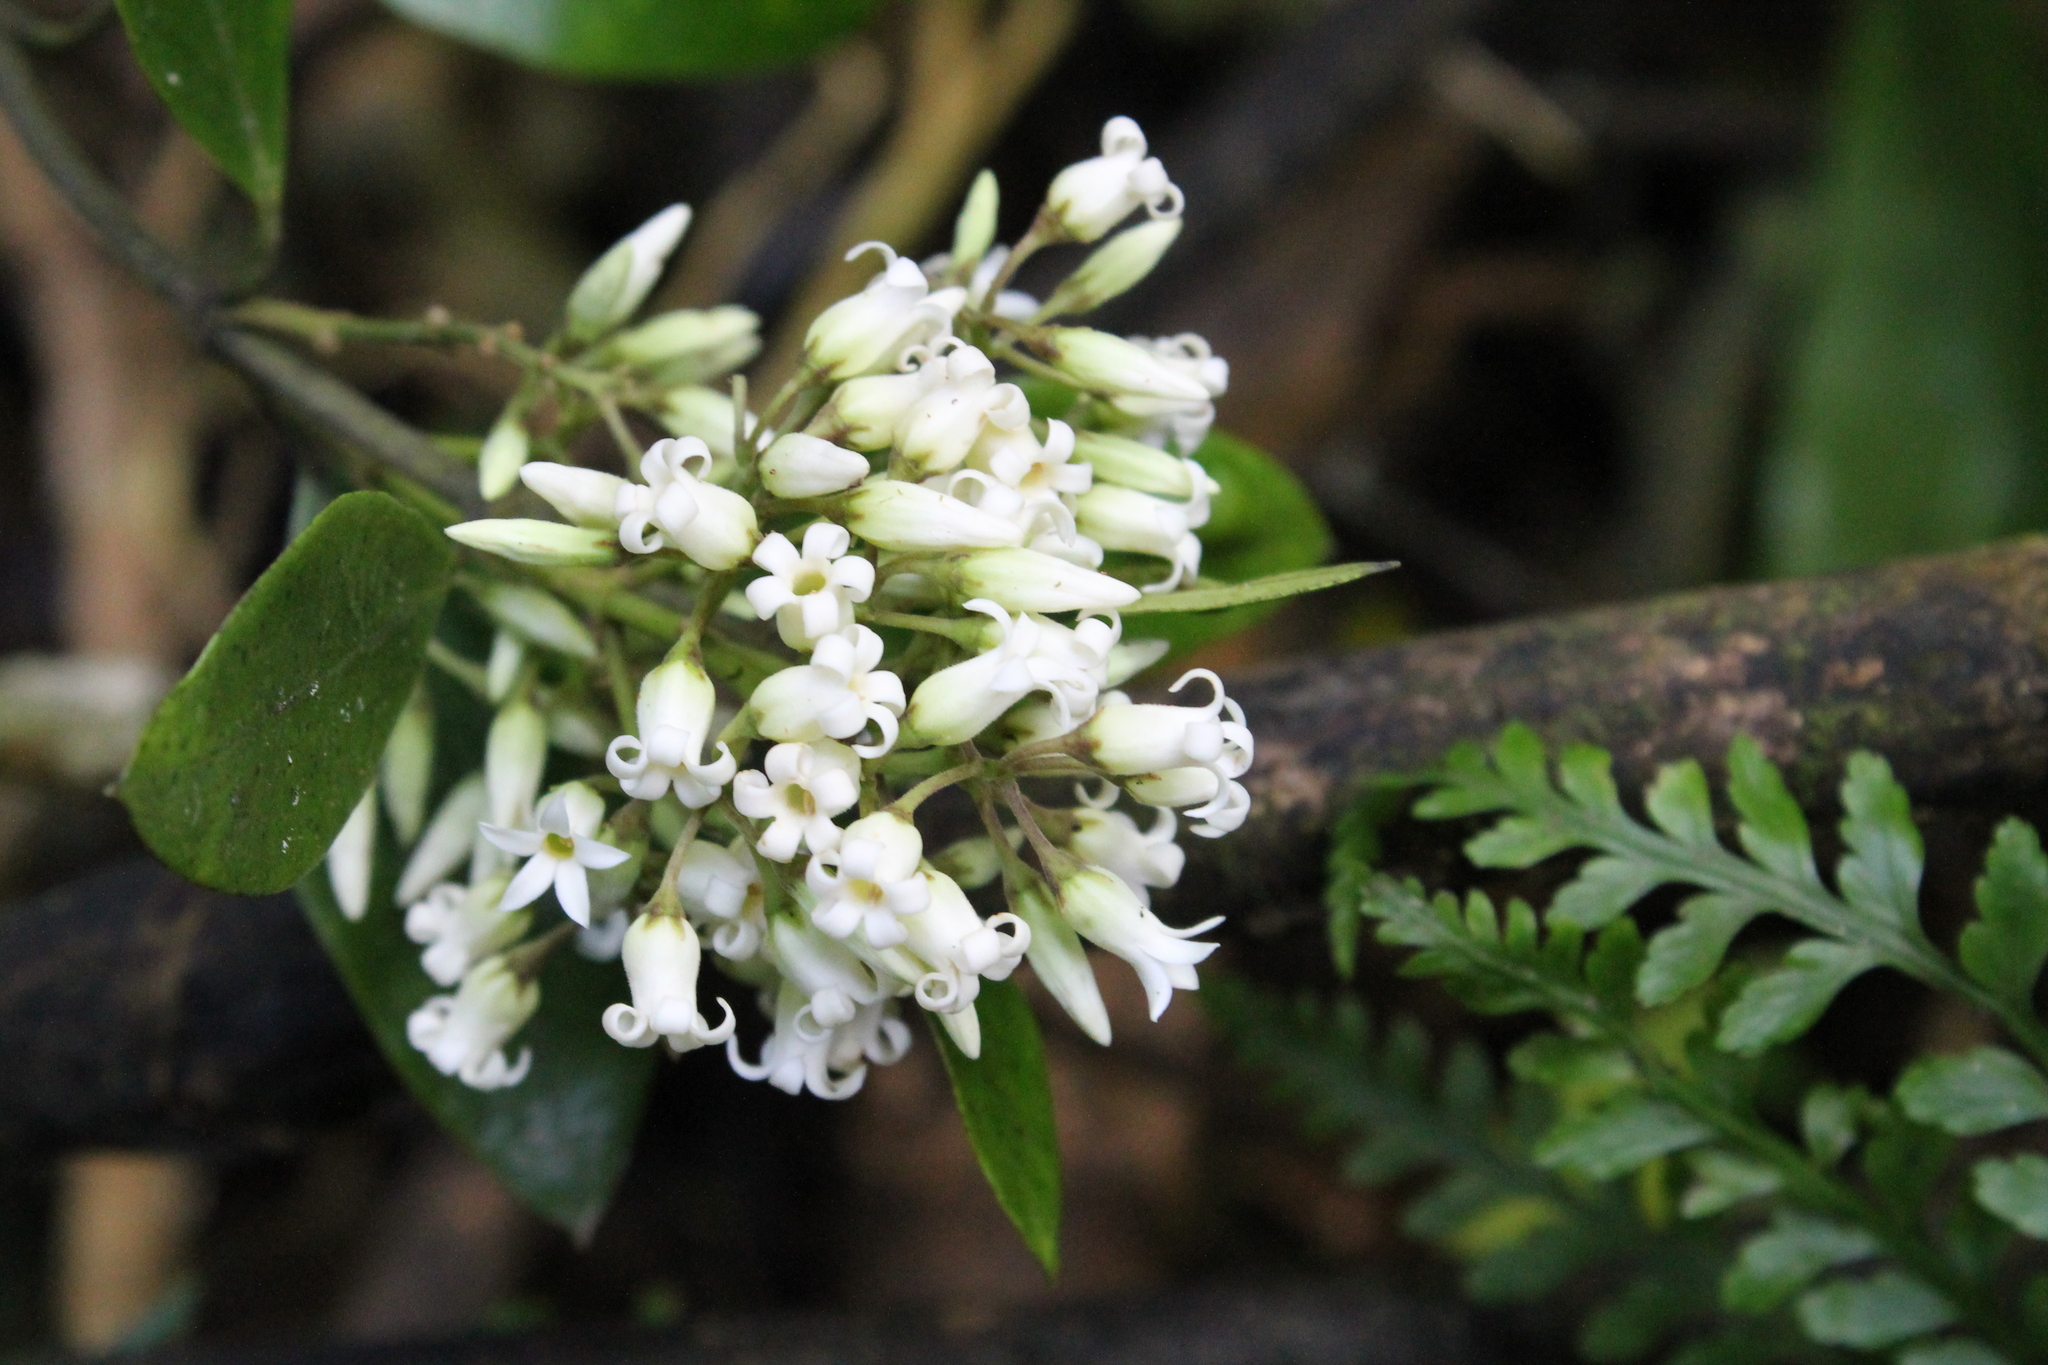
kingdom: Plantae
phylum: Tracheophyta
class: Magnoliopsida
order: Gentianales
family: Apocynaceae
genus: Parsonsia
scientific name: Parsonsia heterophylla
